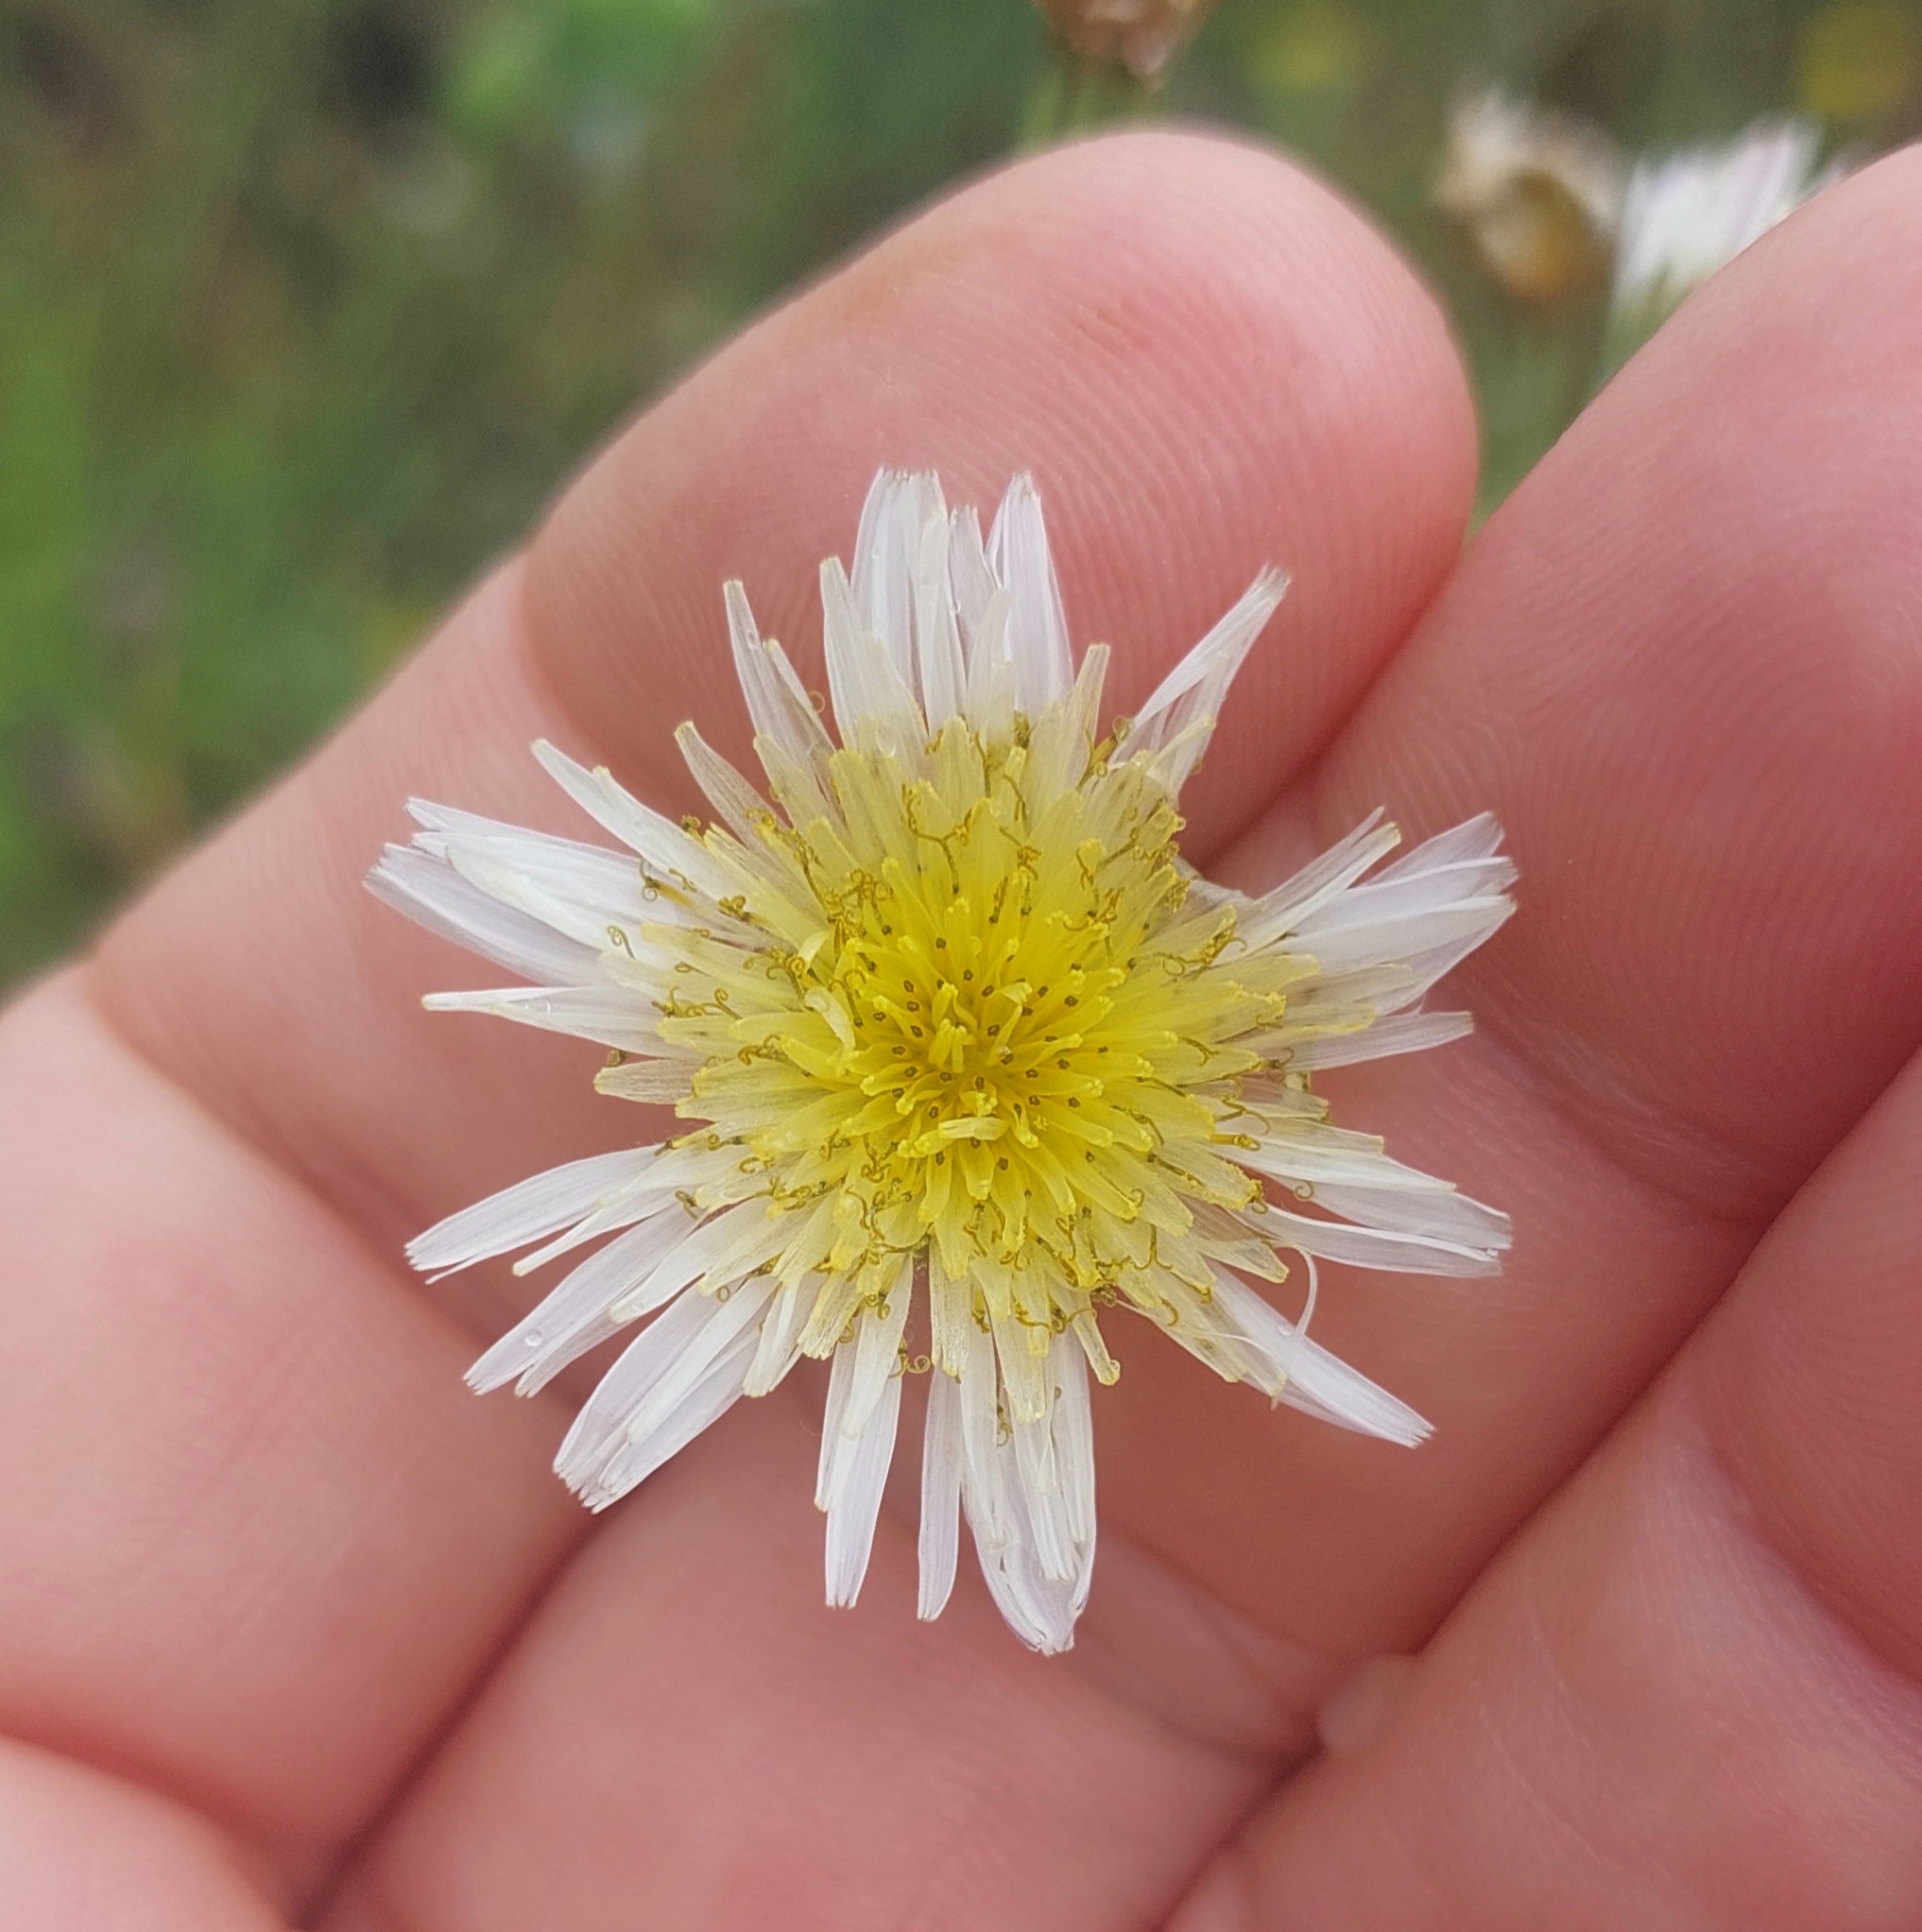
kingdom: Plantae
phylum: Tracheophyta
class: Magnoliopsida
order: Asterales
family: Asteraceae
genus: Sonchus
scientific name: Sonchus oleraceus
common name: Common sowthistle
